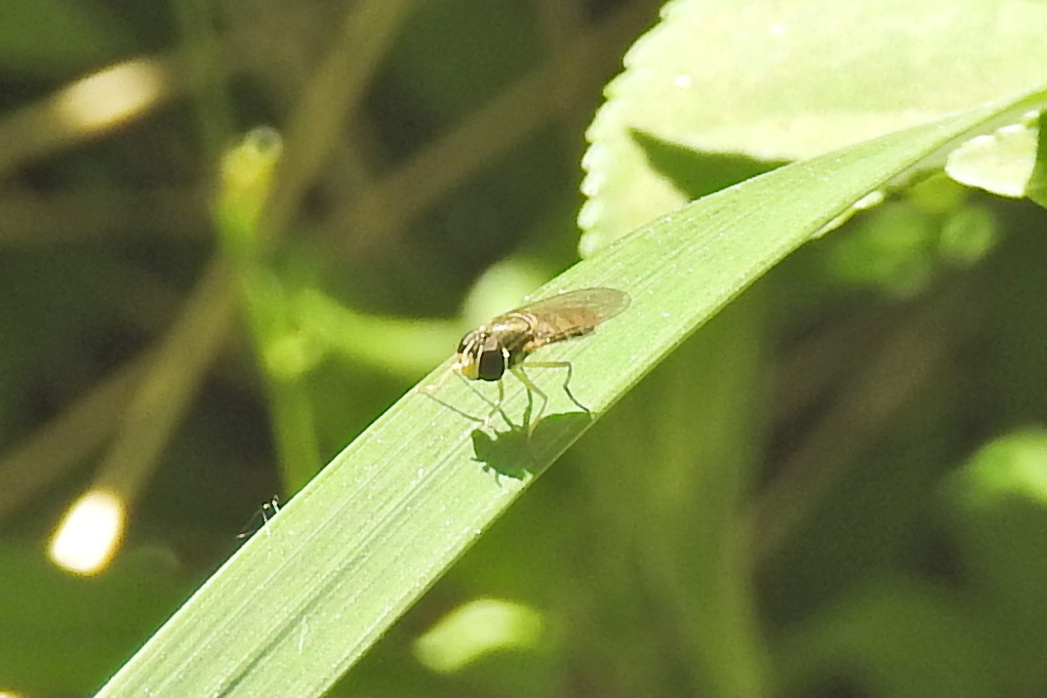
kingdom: Animalia
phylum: Arthropoda
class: Insecta
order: Diptera
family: Syrphidae
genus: Toxomerus
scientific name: Toxomerus marginatus
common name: Syrphid fly
